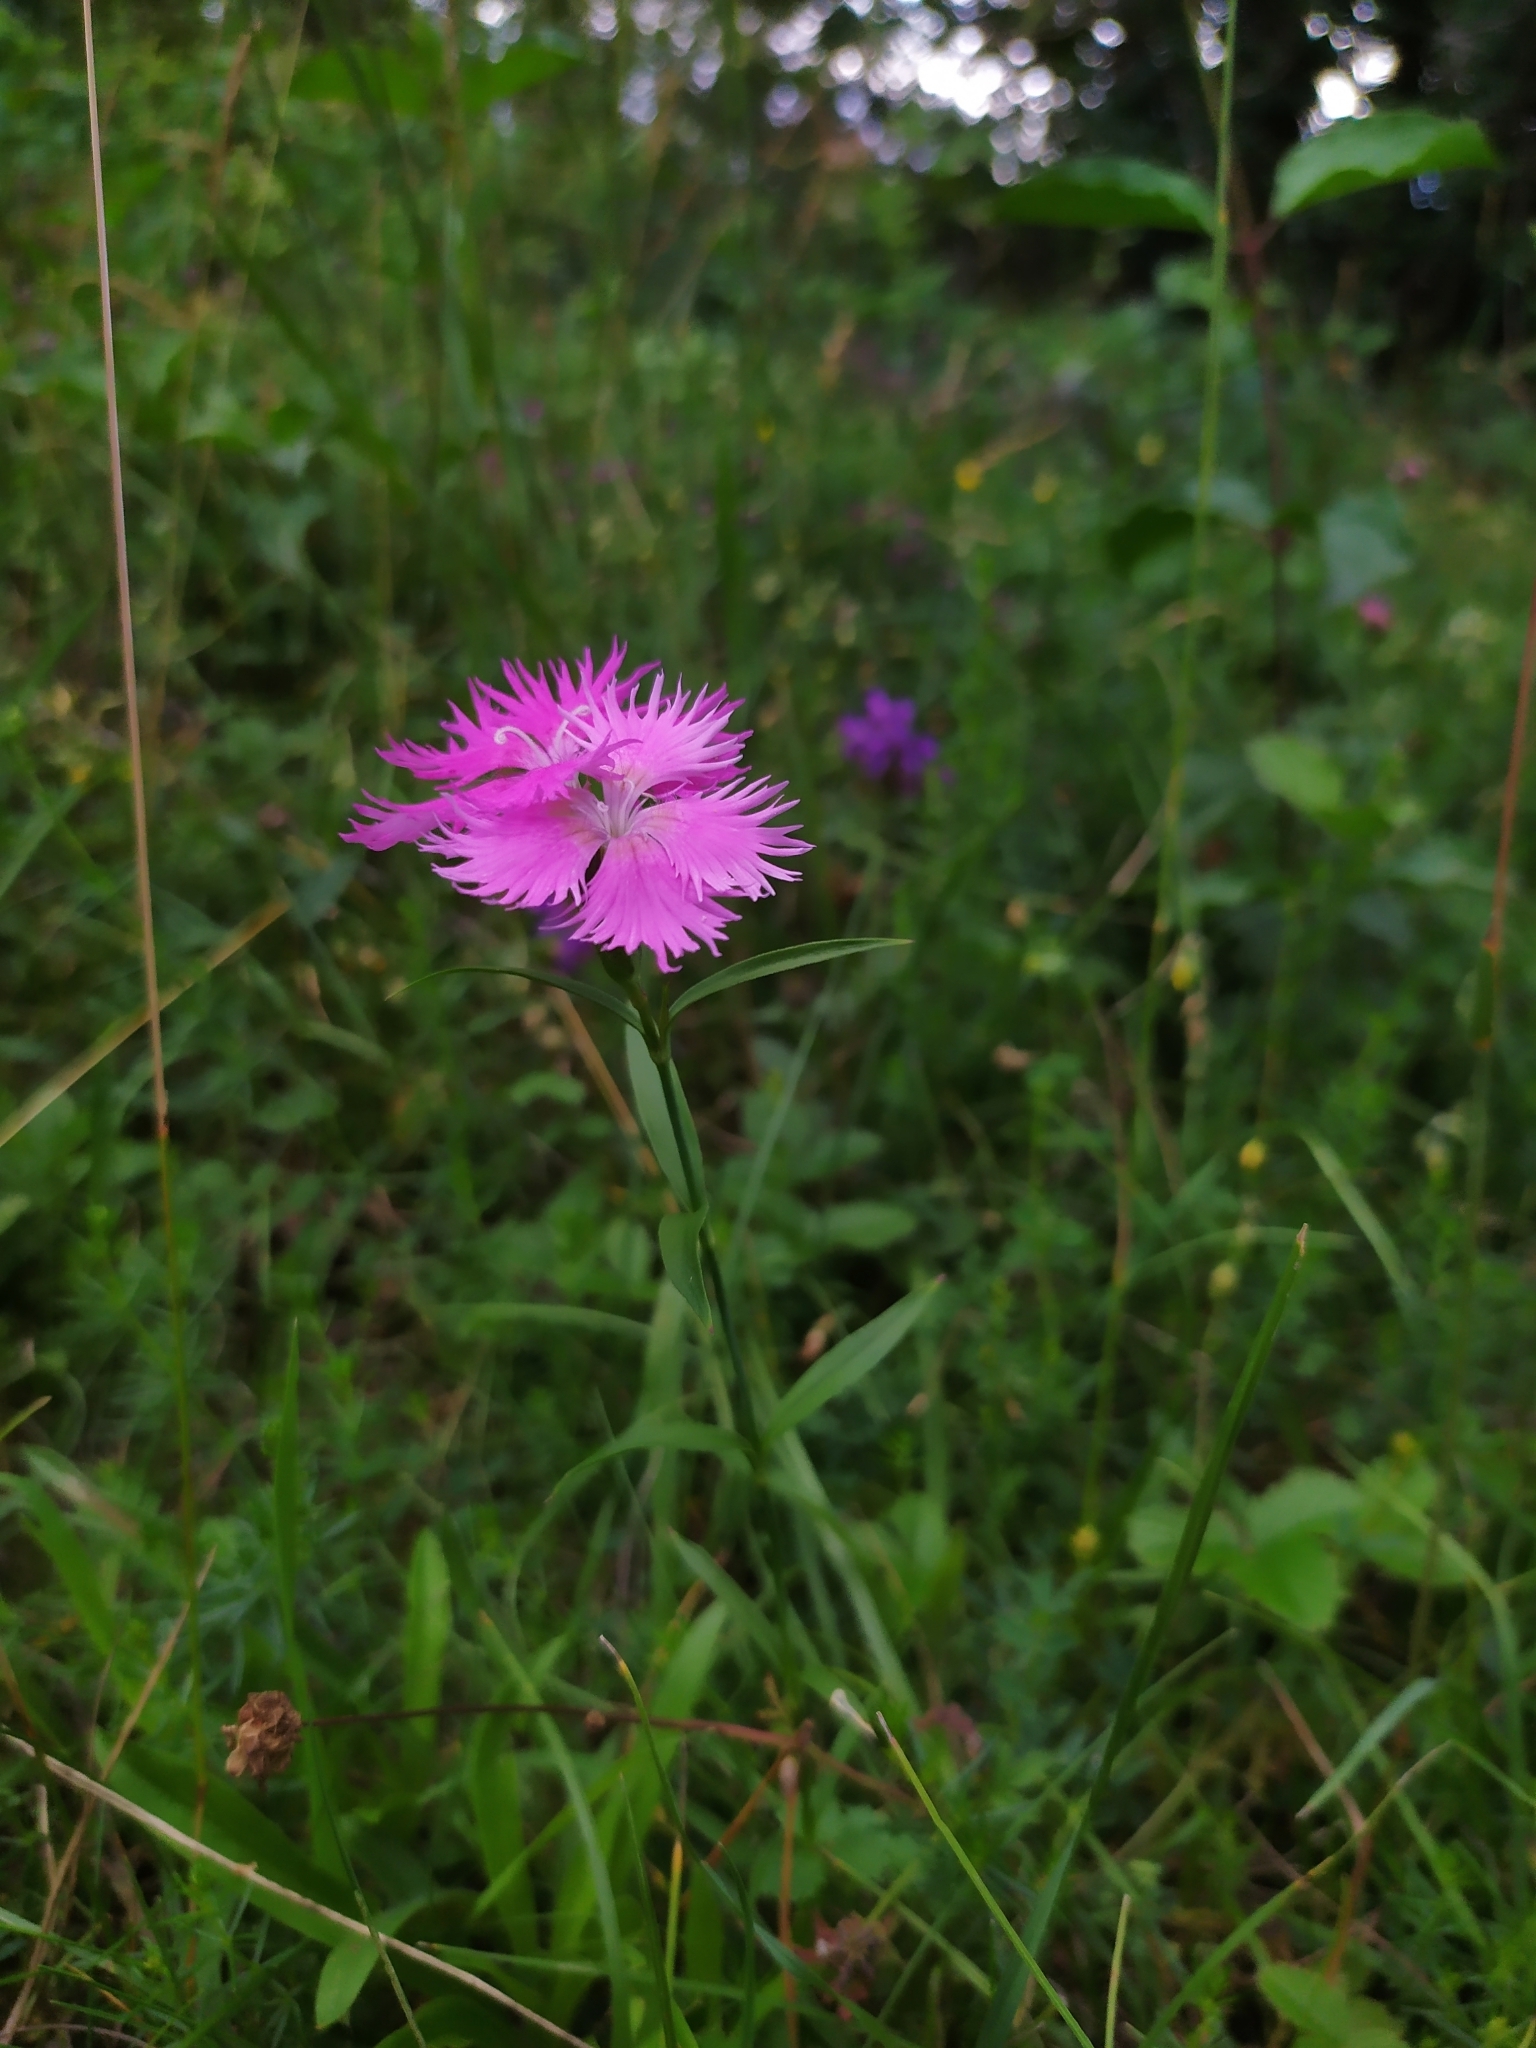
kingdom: Plantae
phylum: Tracheophyta
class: Magnoliopsida
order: Caryophyllales
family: Caryophyllaceae
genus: Dianthus
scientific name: Dianthus plumarius
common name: Pink
